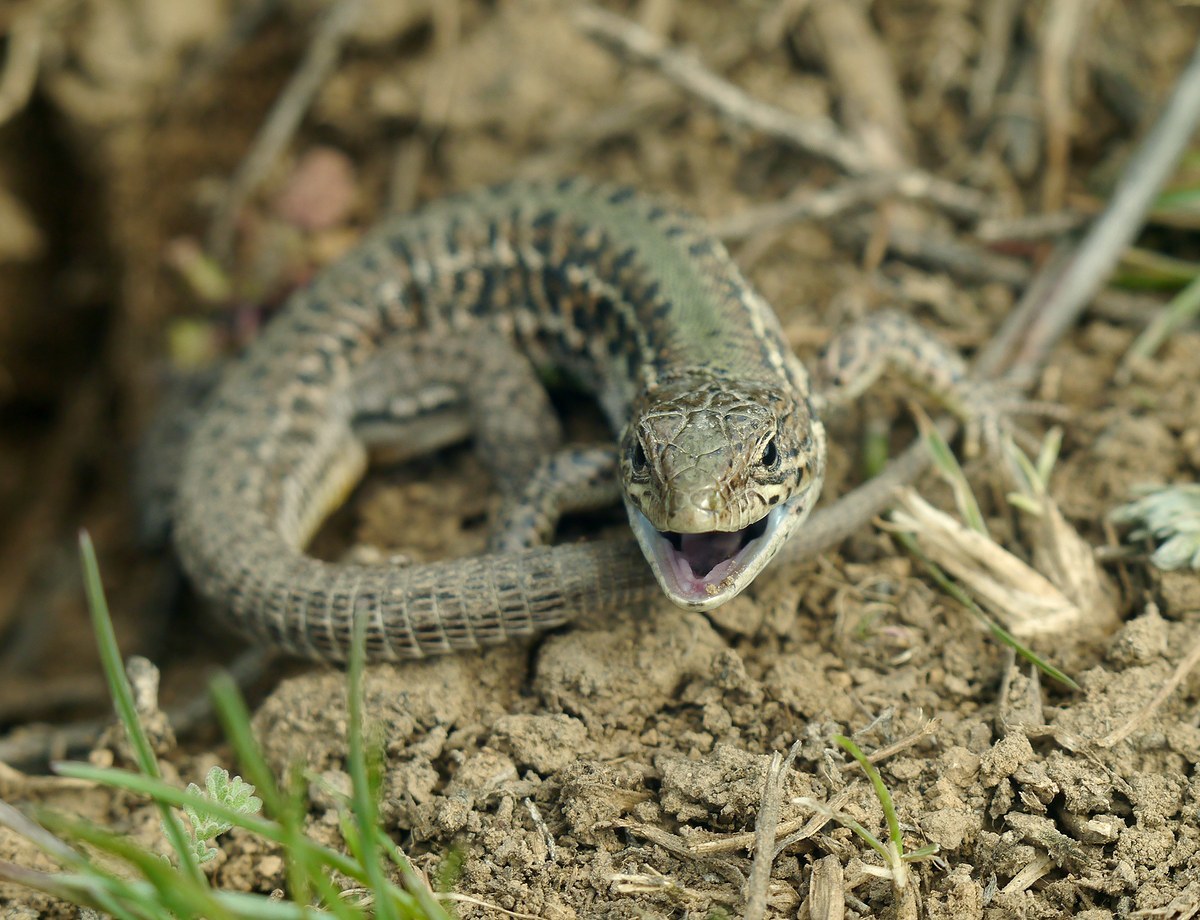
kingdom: Animalia
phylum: Chordata
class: Squamata
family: Lacertidae
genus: Podarcis
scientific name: Podarcis tauricus
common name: Balkan wall lizard
